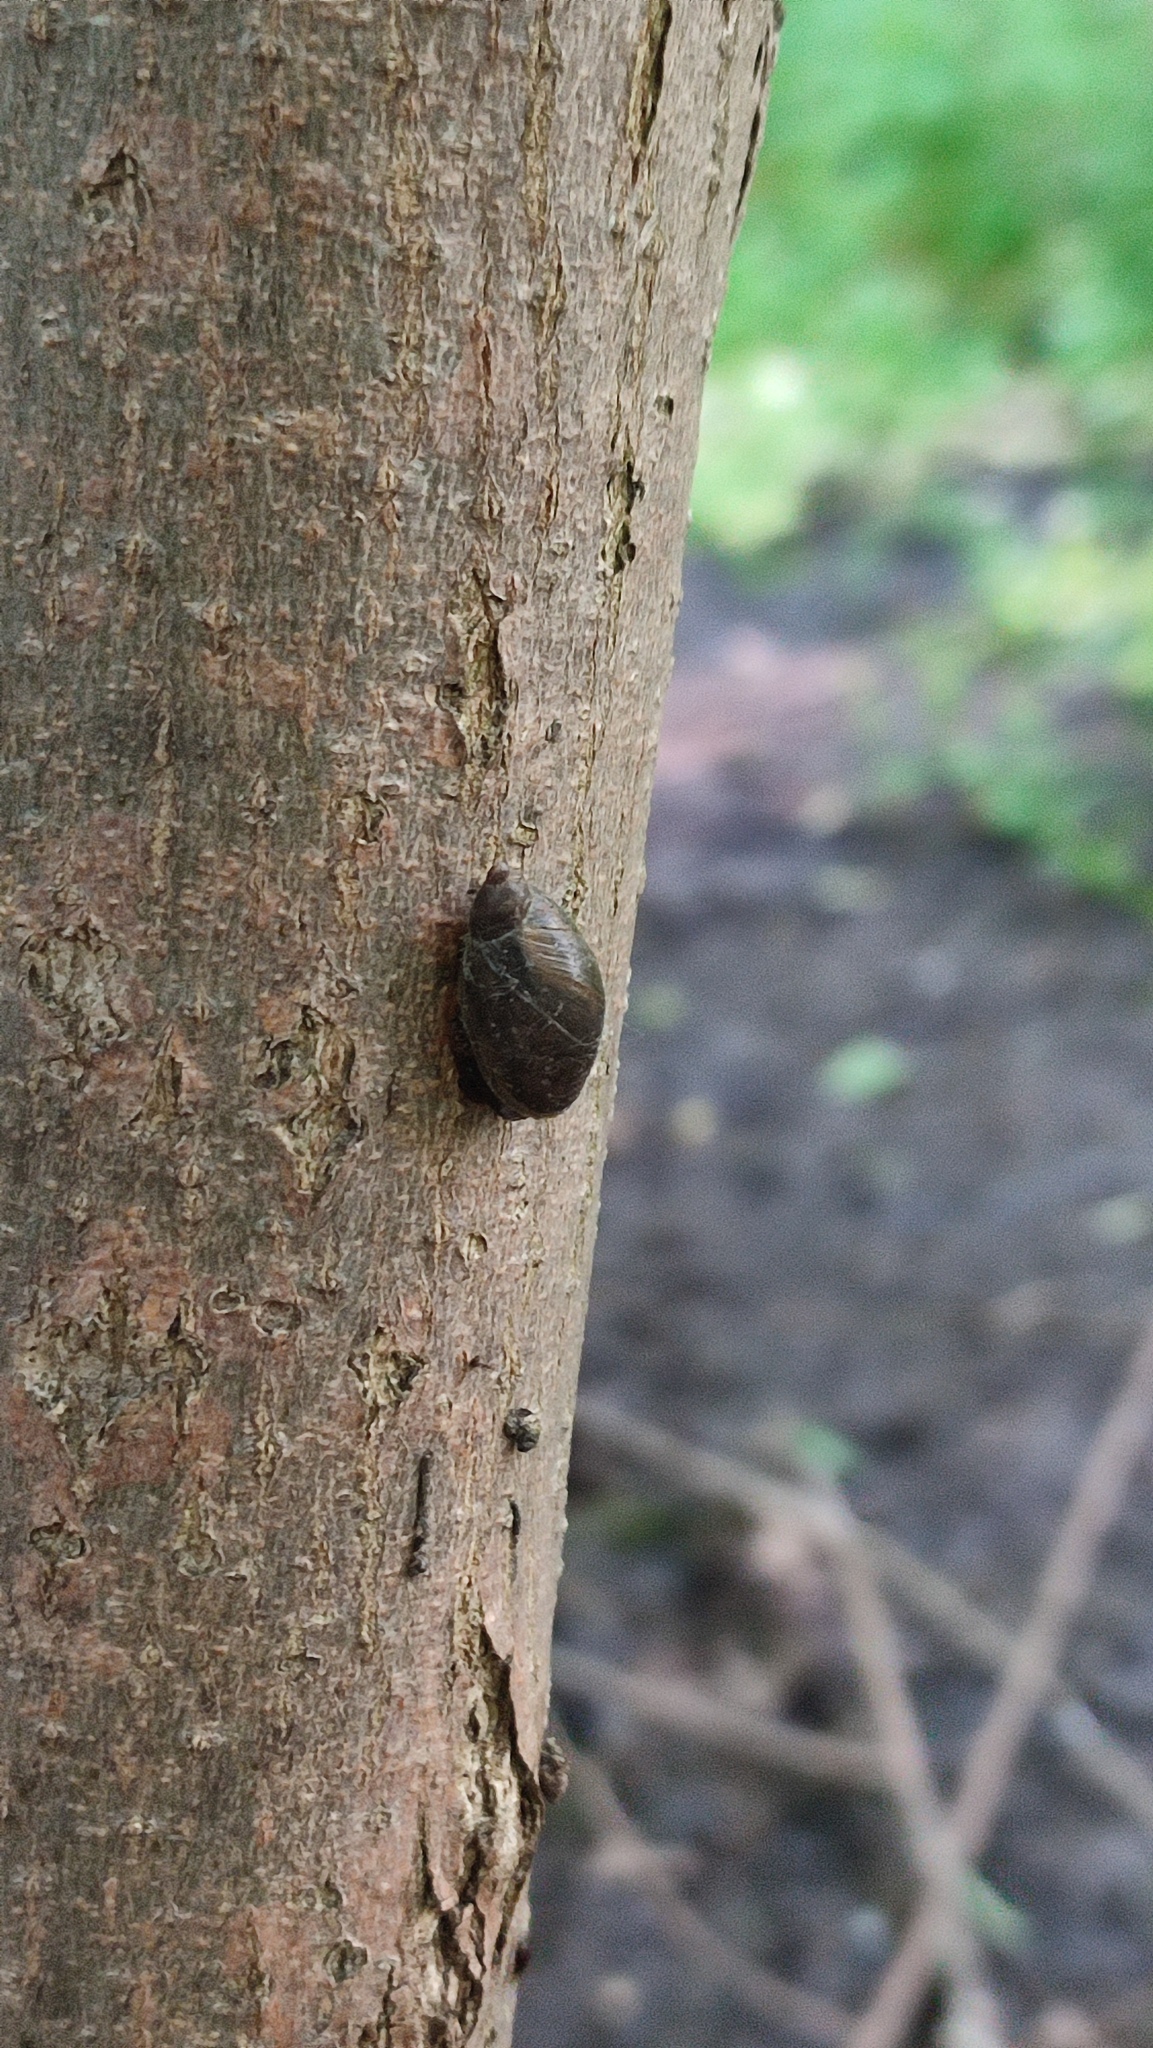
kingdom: Animalia
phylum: Mollusca
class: Gastropoda
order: Stylommatophora
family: Succineidae
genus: Succinea
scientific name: Succinea putris
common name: European ambersnail
